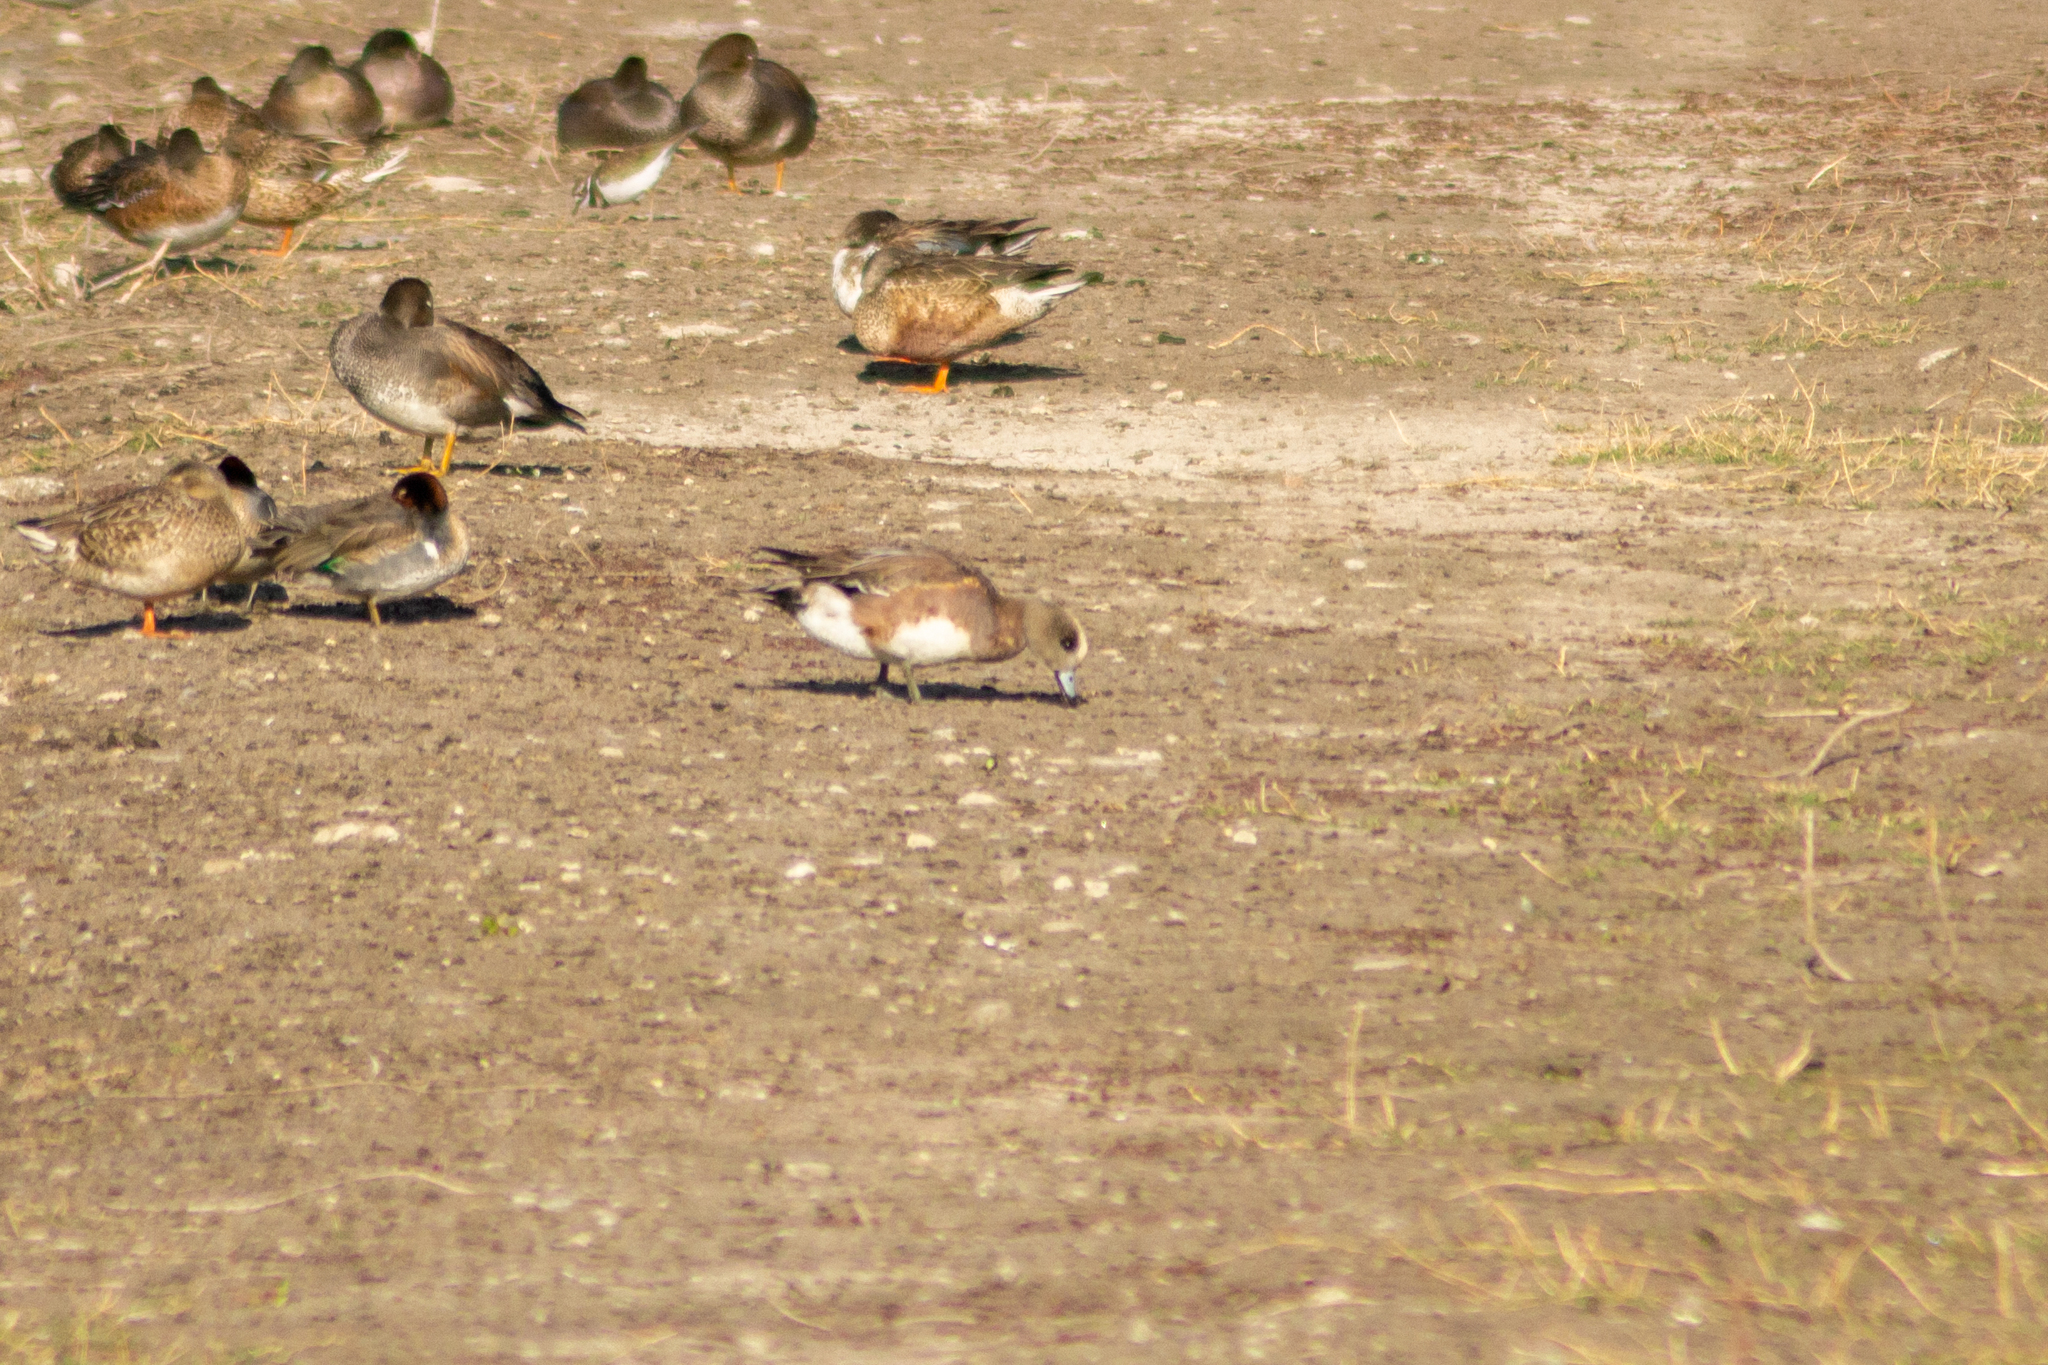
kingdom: Animalia
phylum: Chordata
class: Aves
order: Anseriformes
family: Anatidae
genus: Mareca
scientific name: Mareca americana
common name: American wigeon
